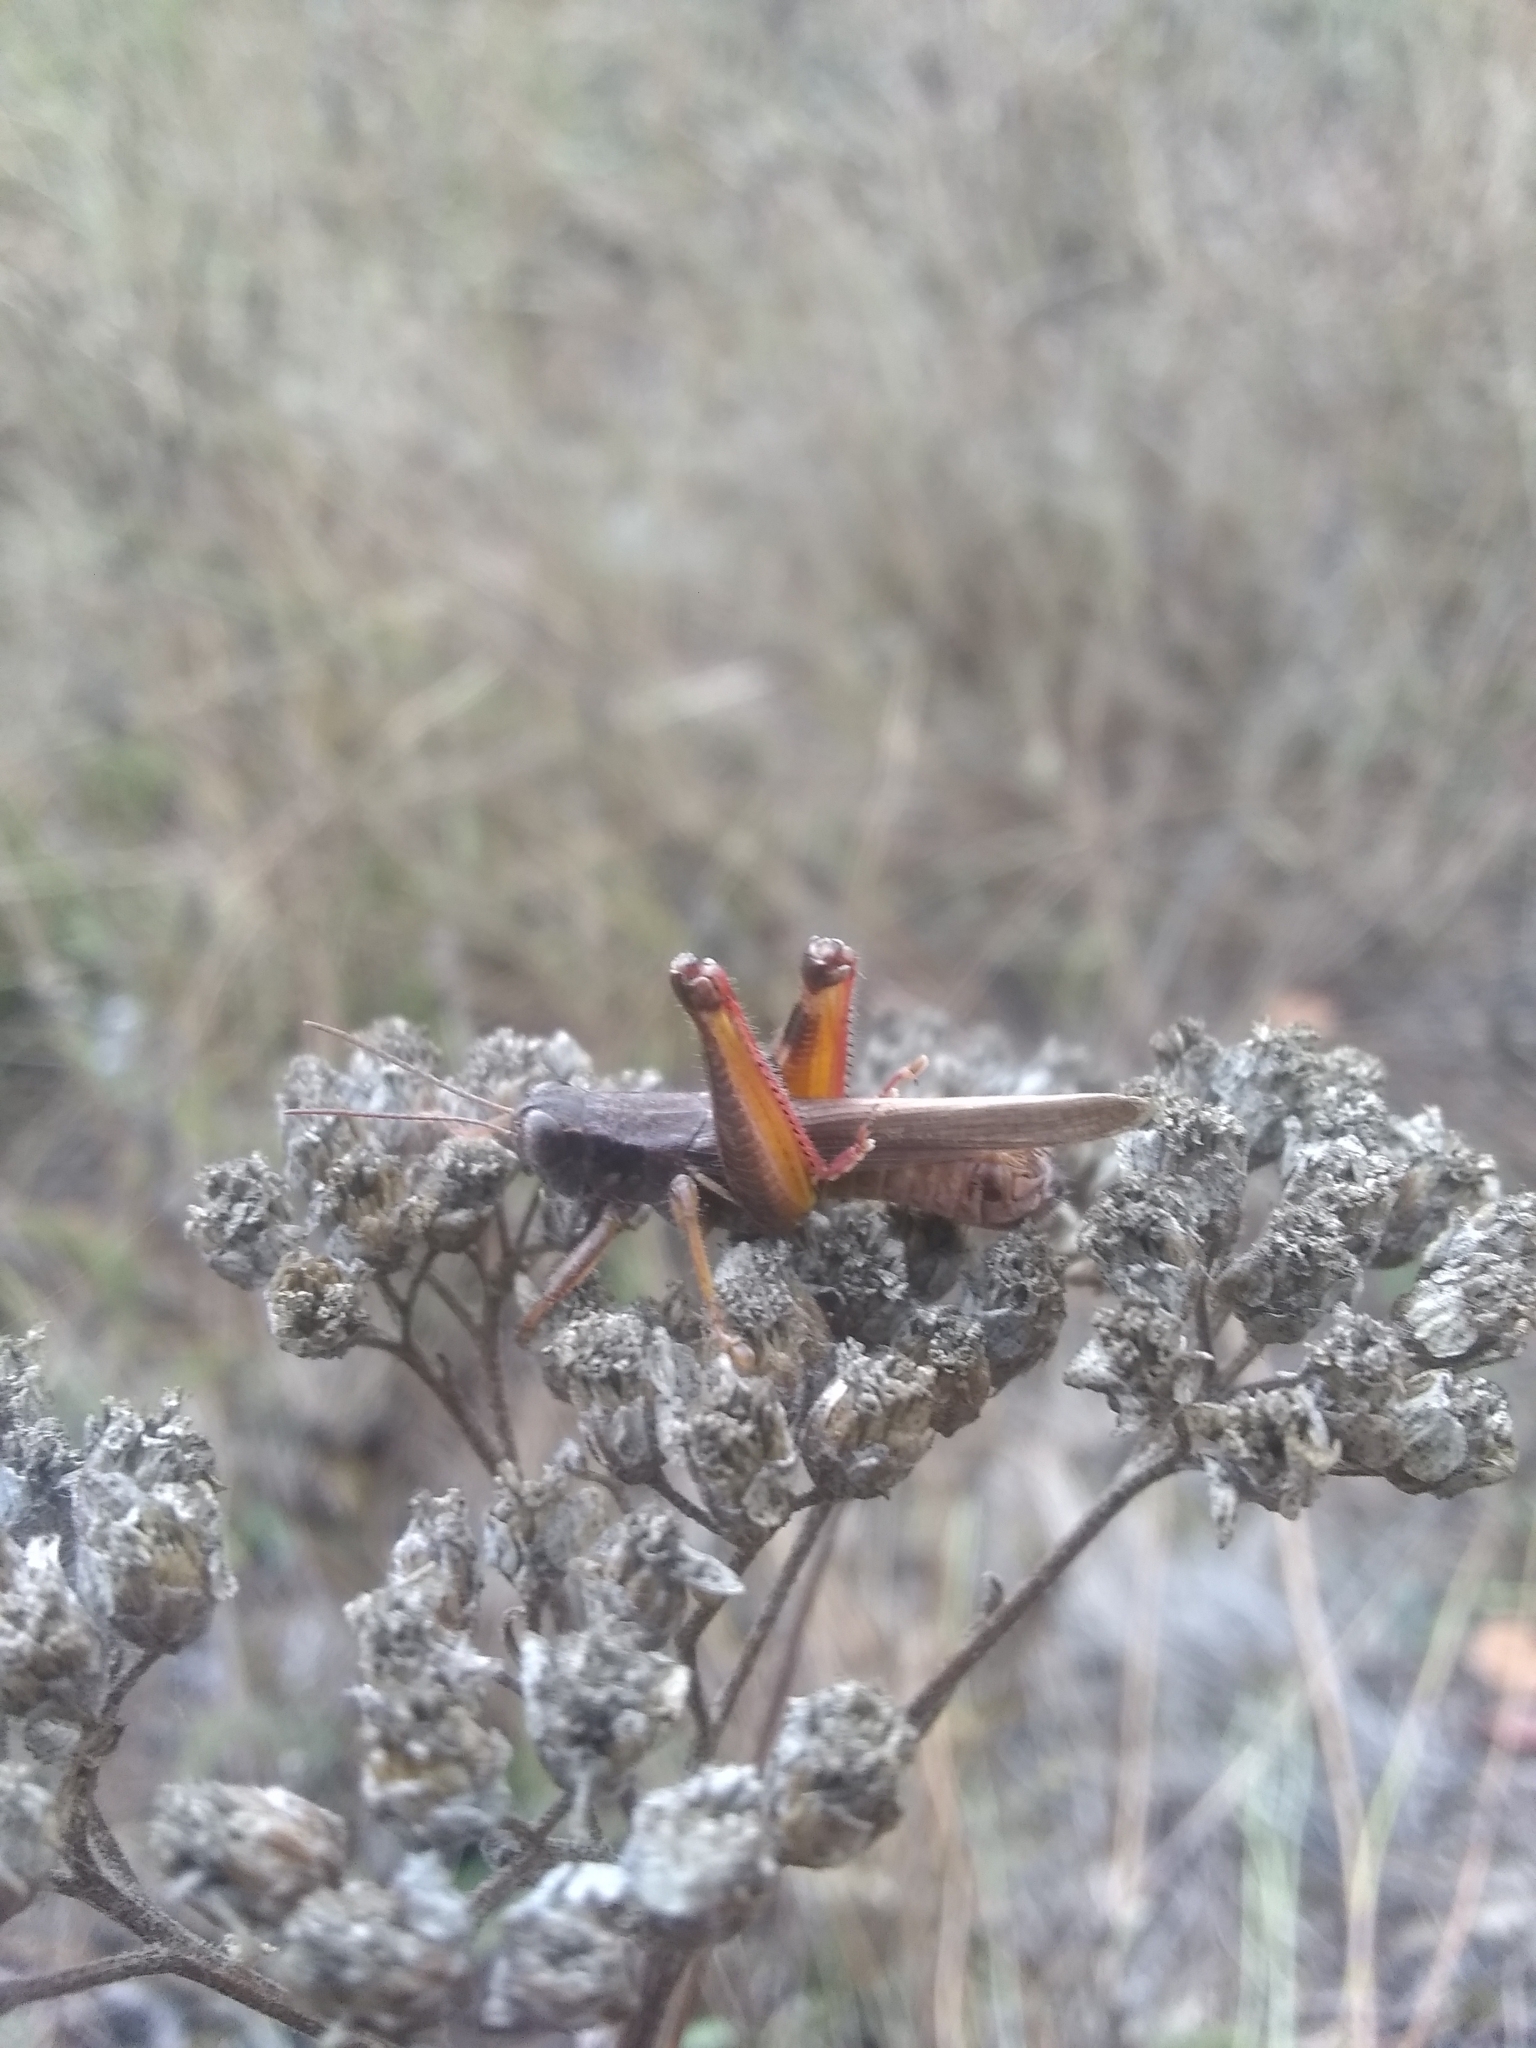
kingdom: Animalia
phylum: Arthropoda
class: Insecta
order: Orthoptera
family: Acrididae
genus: Melanoplus
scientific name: Melanoplus femurrubrum
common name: Red-legged grasshopper
